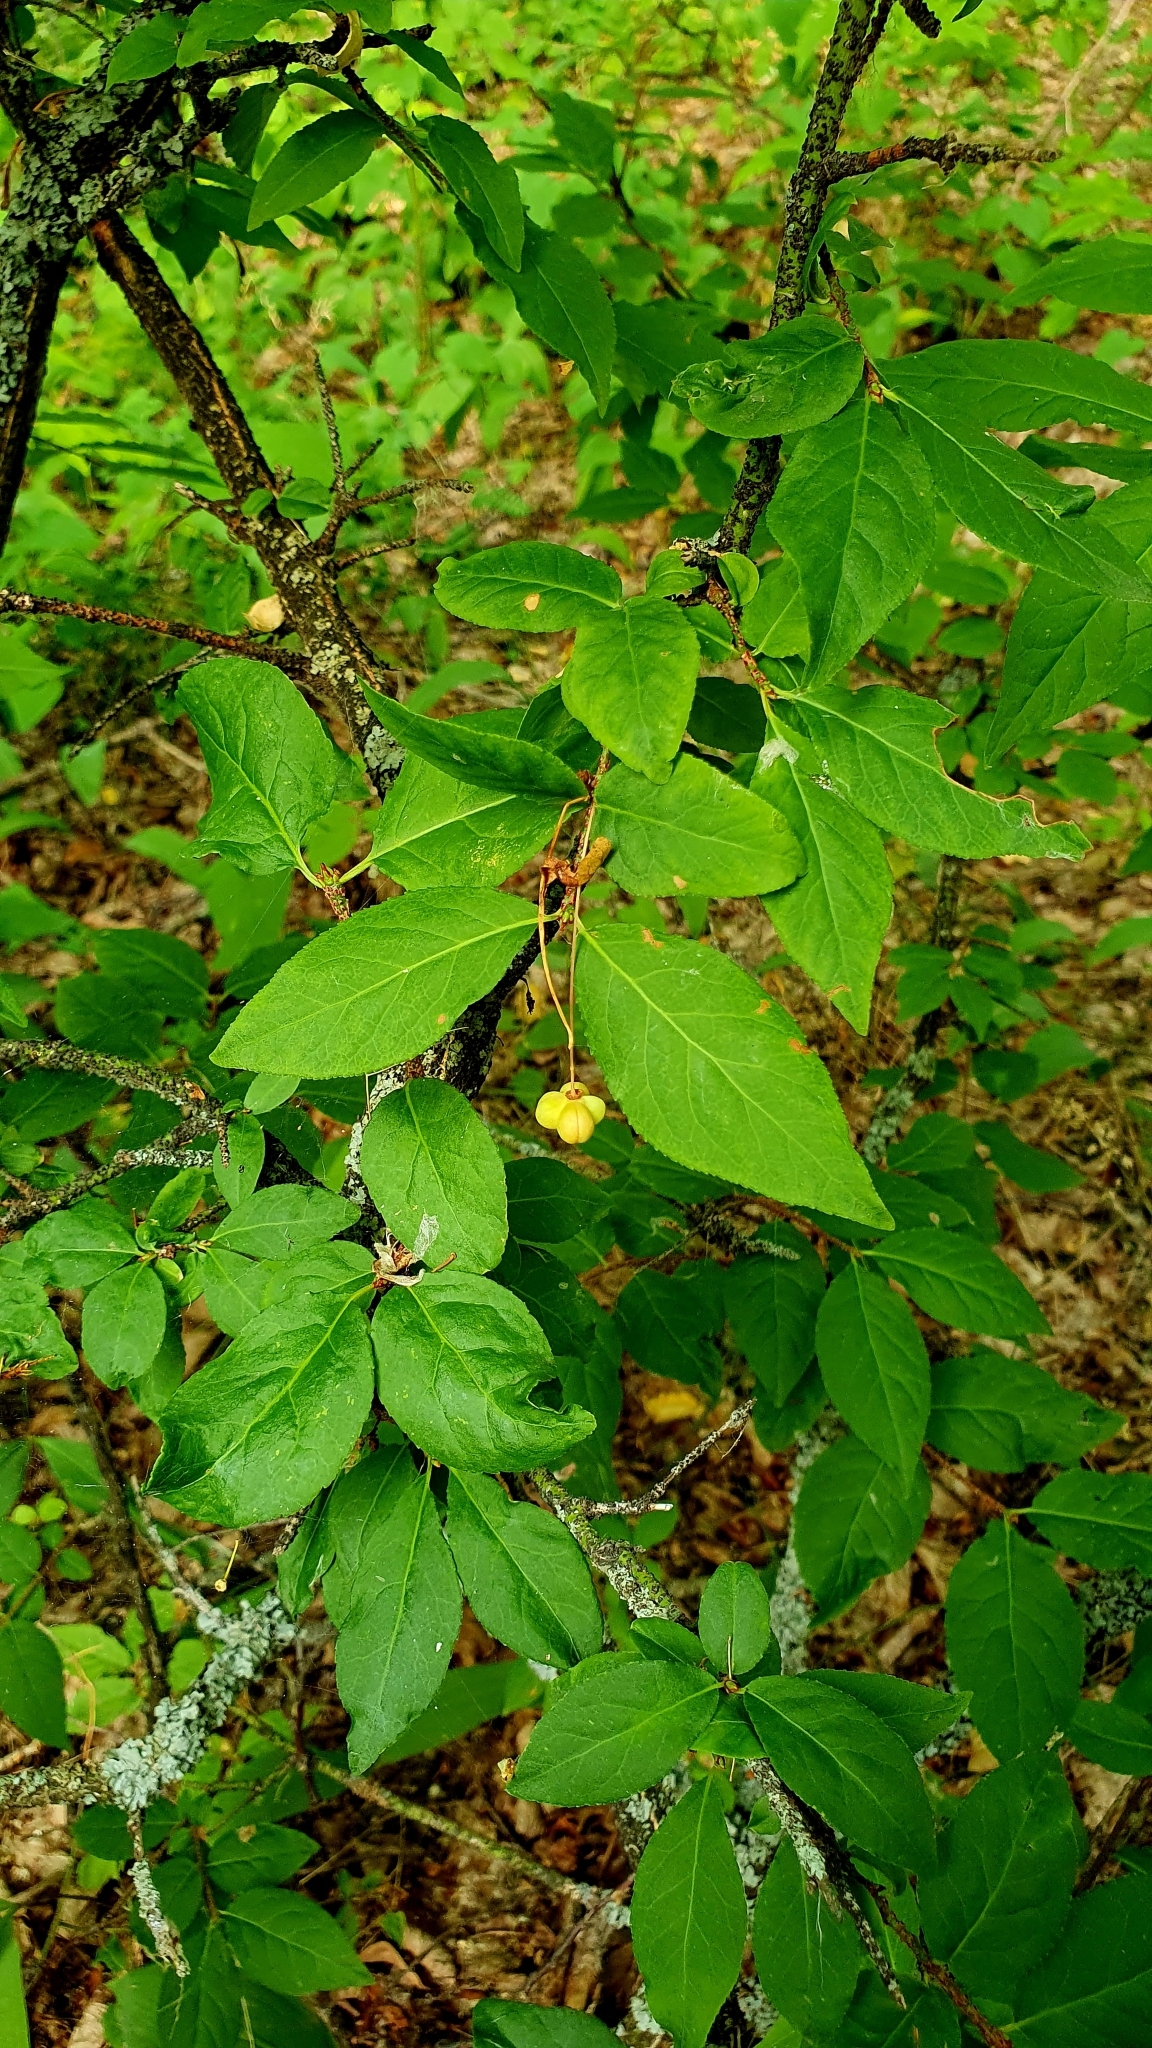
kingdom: Plantae
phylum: Tracheophyta
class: Magnoliopsida
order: Celastrales
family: Celastraceae
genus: Euonymus
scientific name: Euonymus verrucosus
